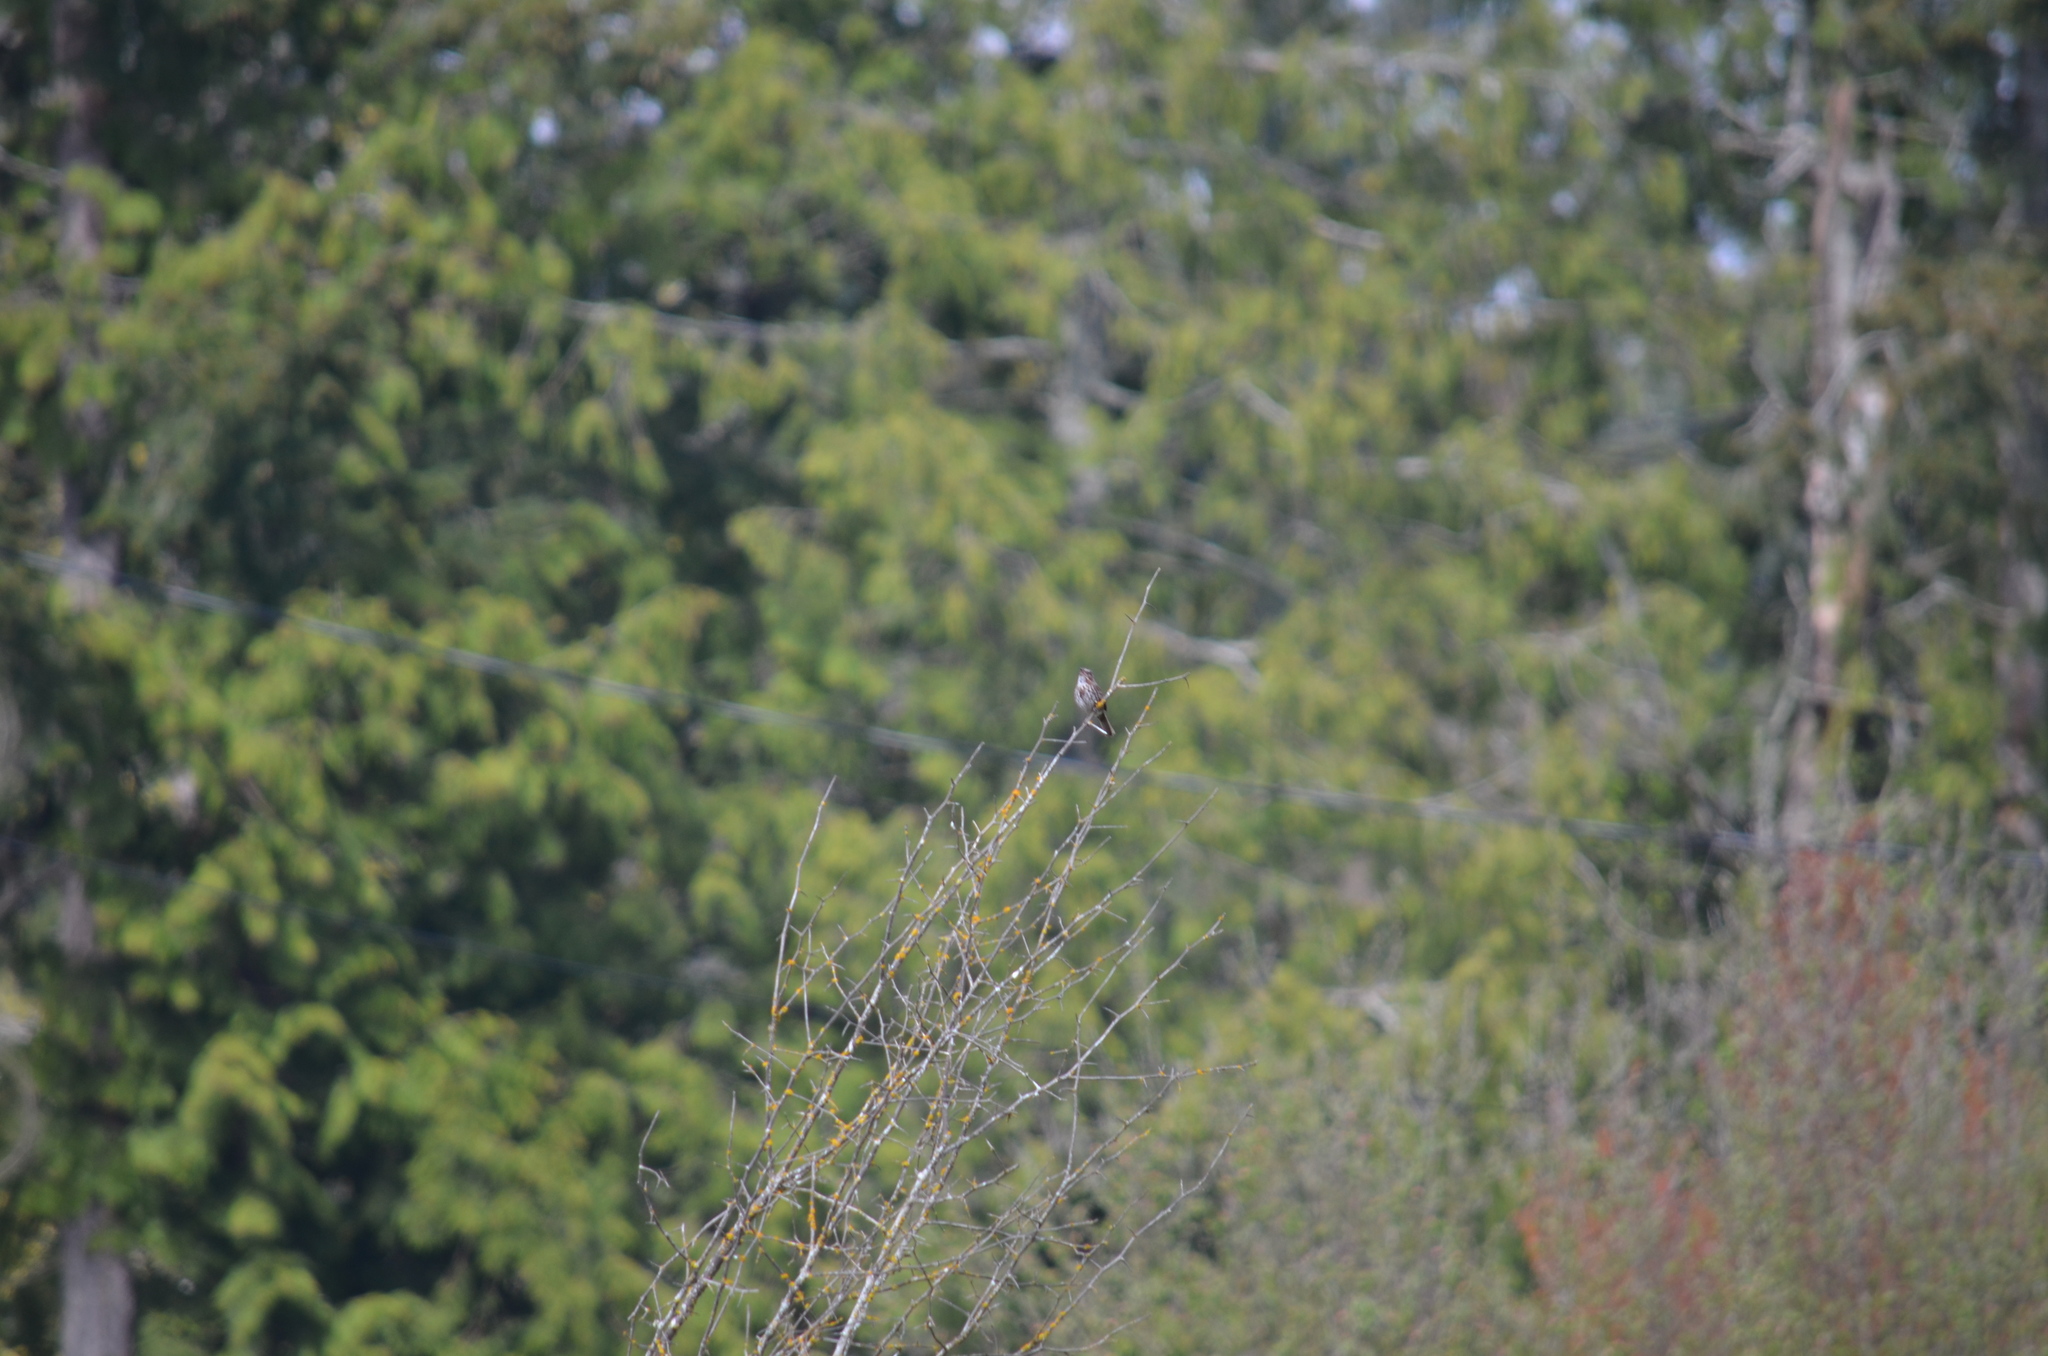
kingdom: Animalia
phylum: Chordata
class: Aves
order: Passeriformes
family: Passerellidae
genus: Melospiza
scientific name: Melospiza melodia
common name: Song sparrow
